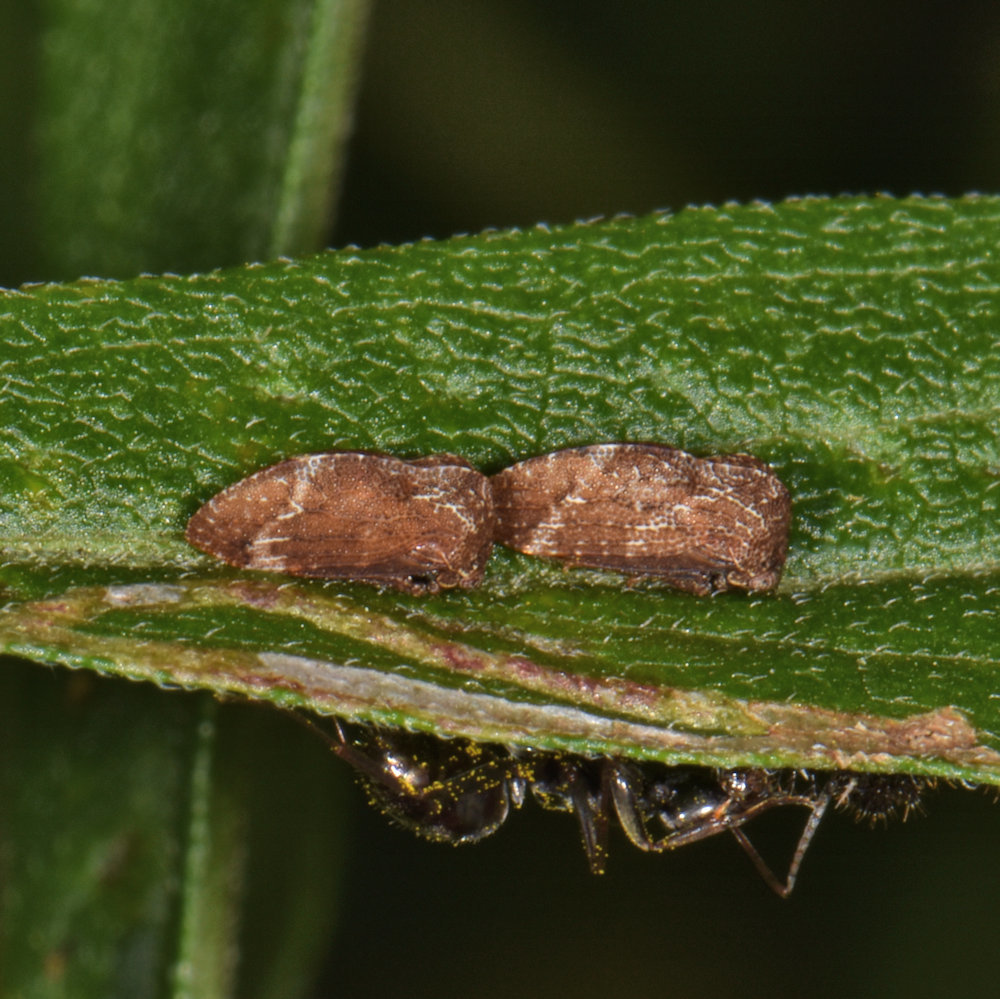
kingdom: Animalia
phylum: Arthropoda
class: Insecta
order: Hemiptera
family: Membracidae
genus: Publilia
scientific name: Publilia concava
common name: Aster treehopper
